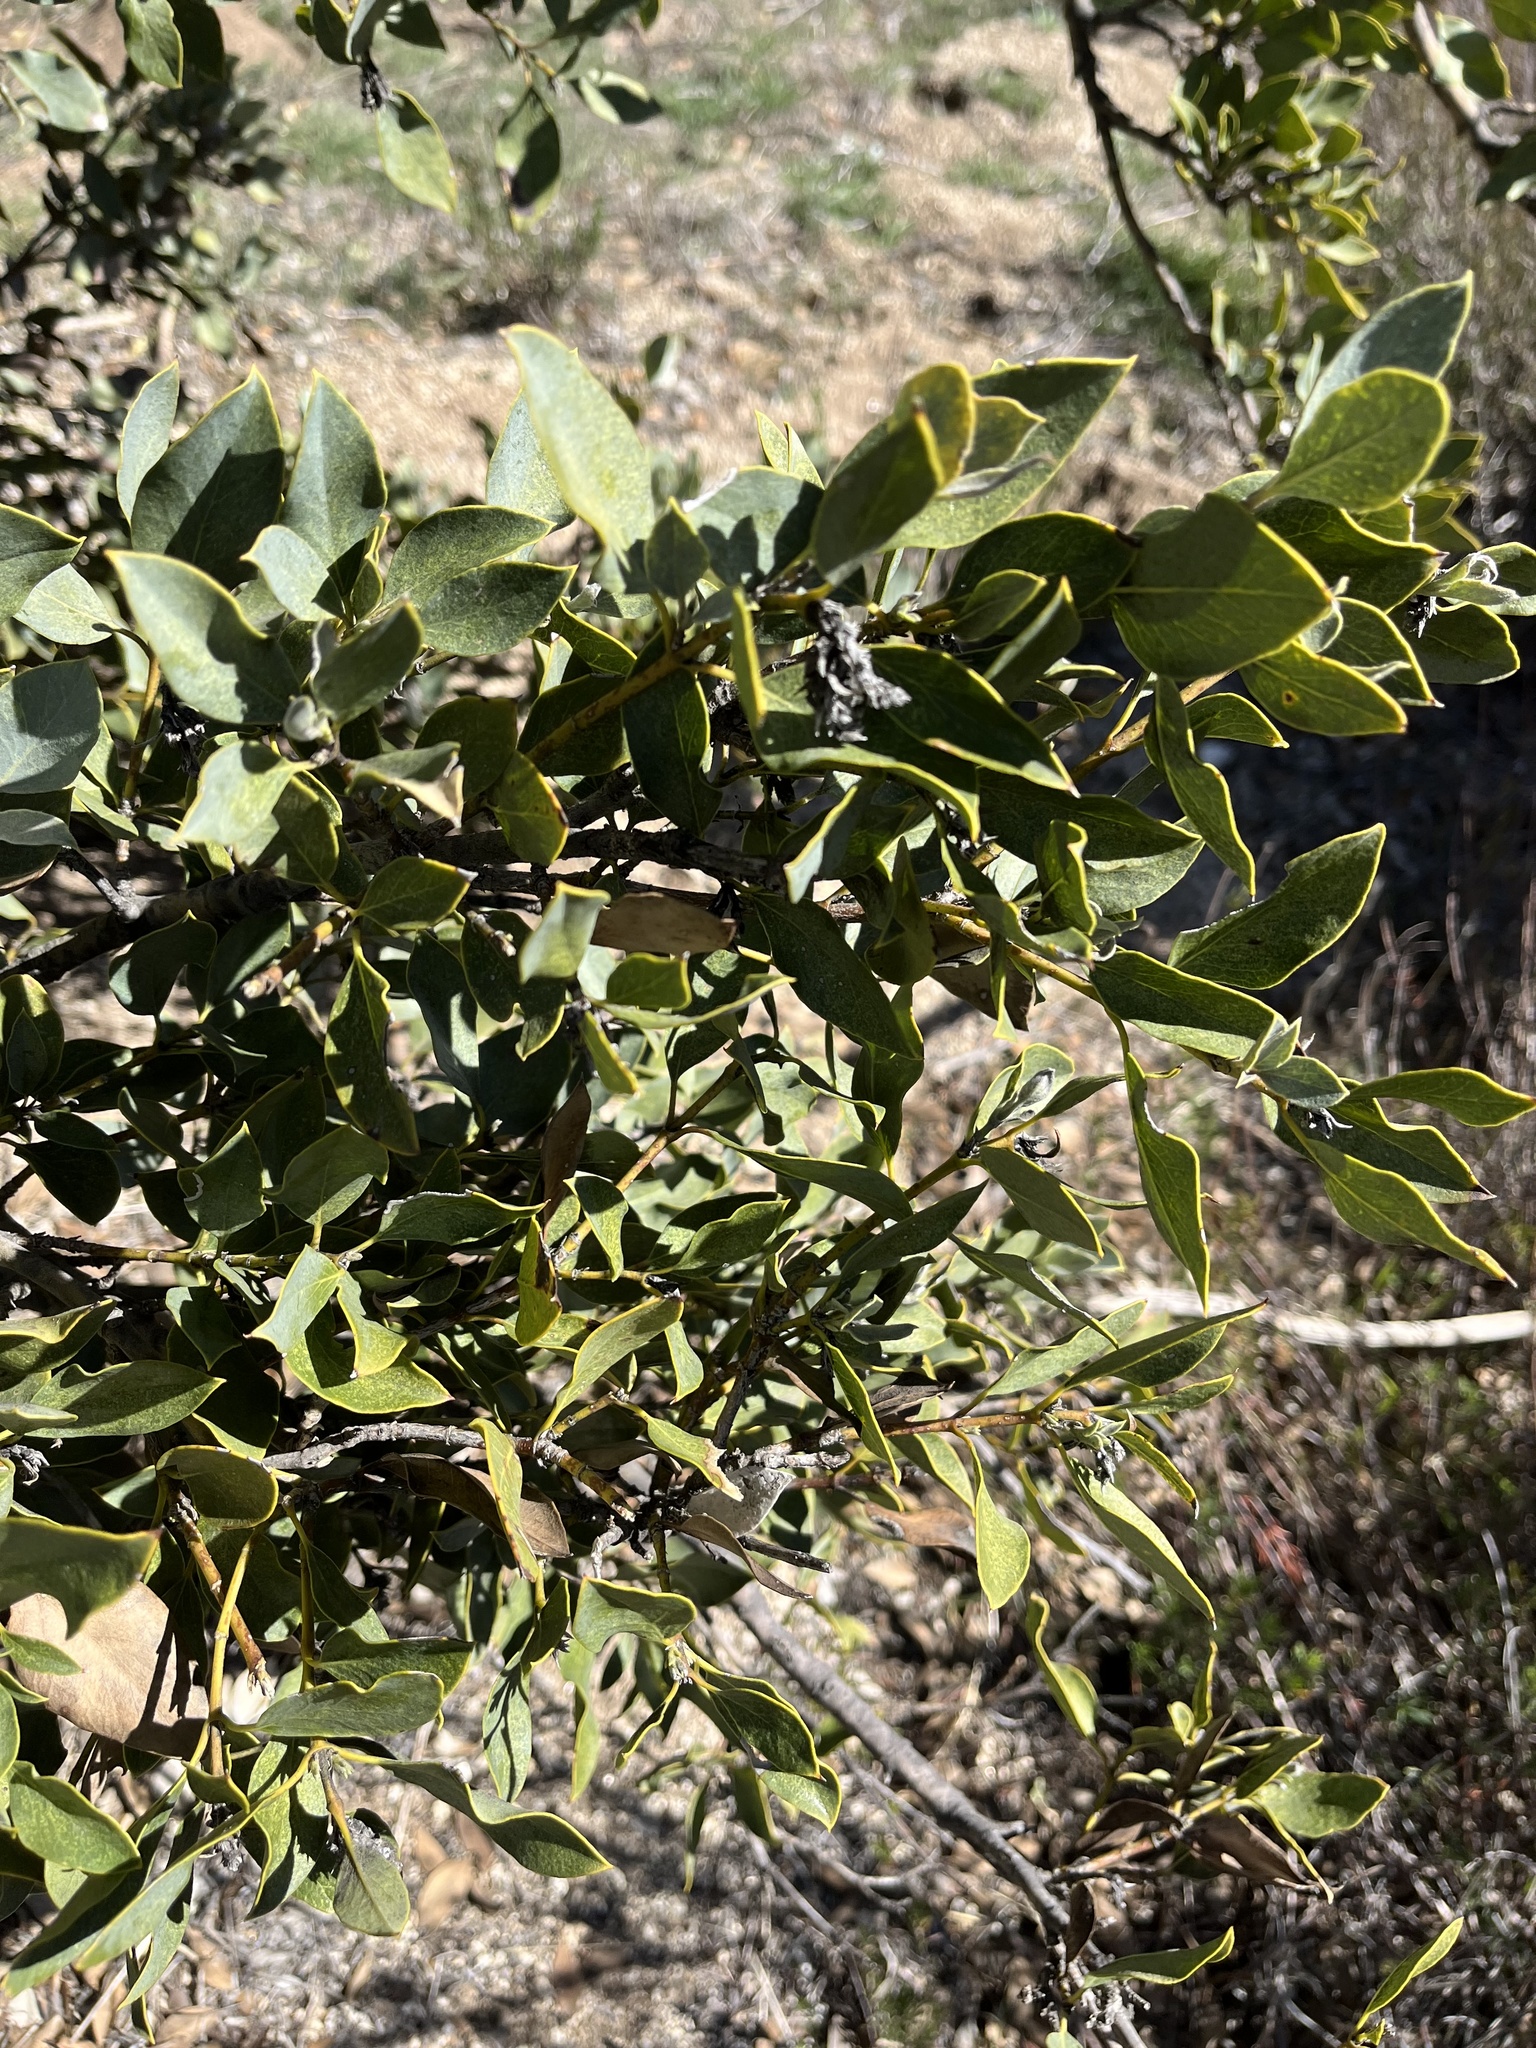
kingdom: Plantae
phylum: Tracheophyta
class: Magnoliopsida
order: Garryales
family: Garryaceae
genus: Garrya
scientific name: Garrya flavescens
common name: Ashy silk-tassel
